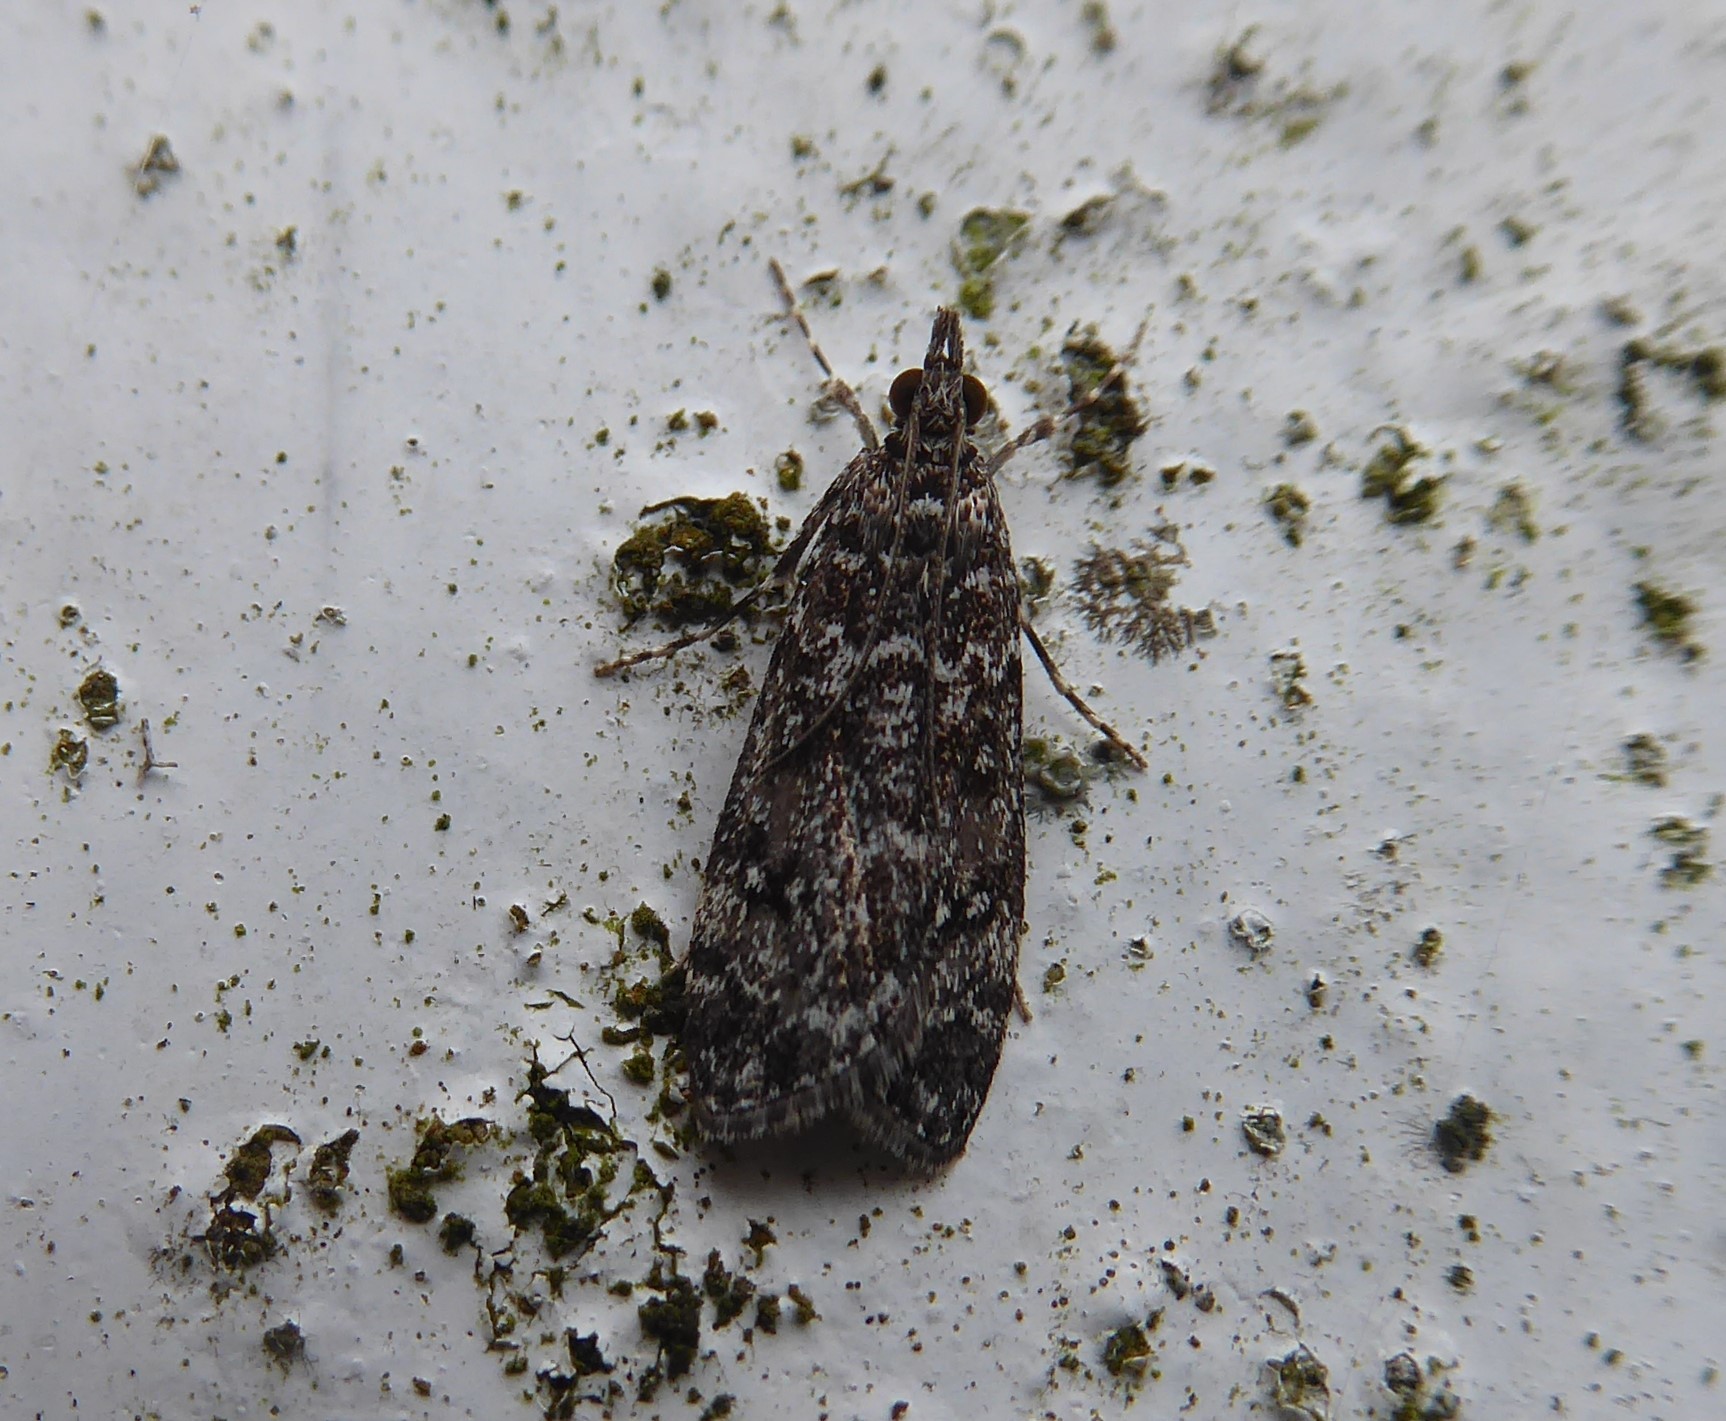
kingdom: Animalia
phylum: Arthropoda
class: Insecta
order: Lepidoptera
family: Crambidae
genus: Eudonia
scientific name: Eudonia philerga
